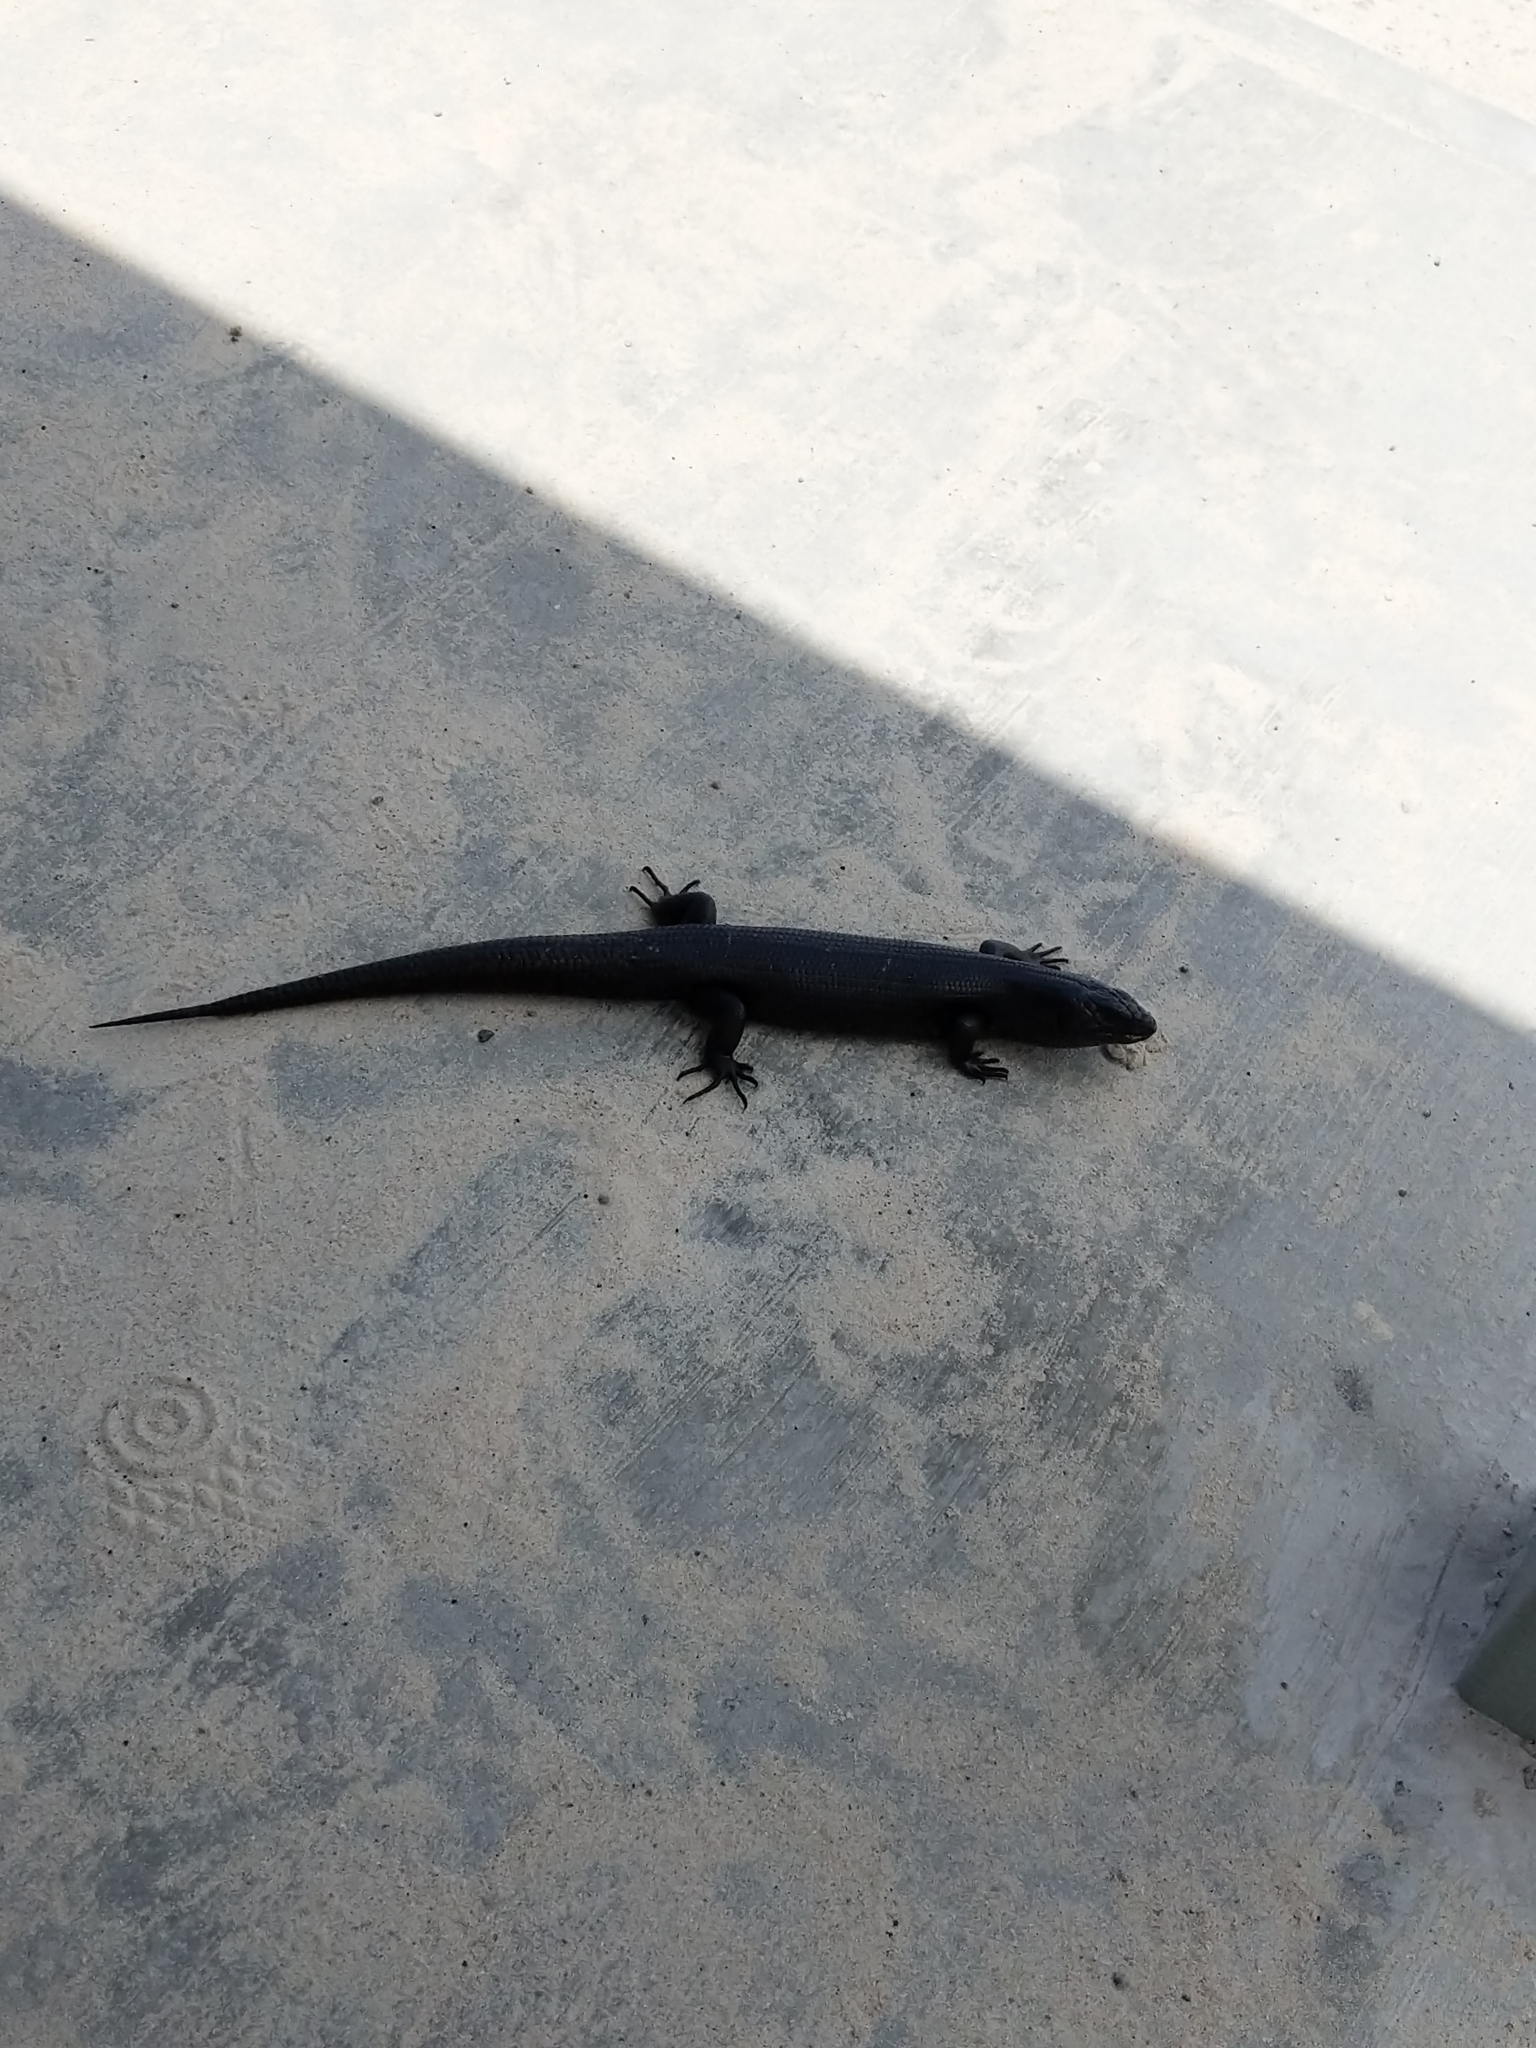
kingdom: Animalia
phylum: Chordata
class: Squamata
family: Scincidae
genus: Egernia
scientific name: Egernia kingii
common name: King's skink
